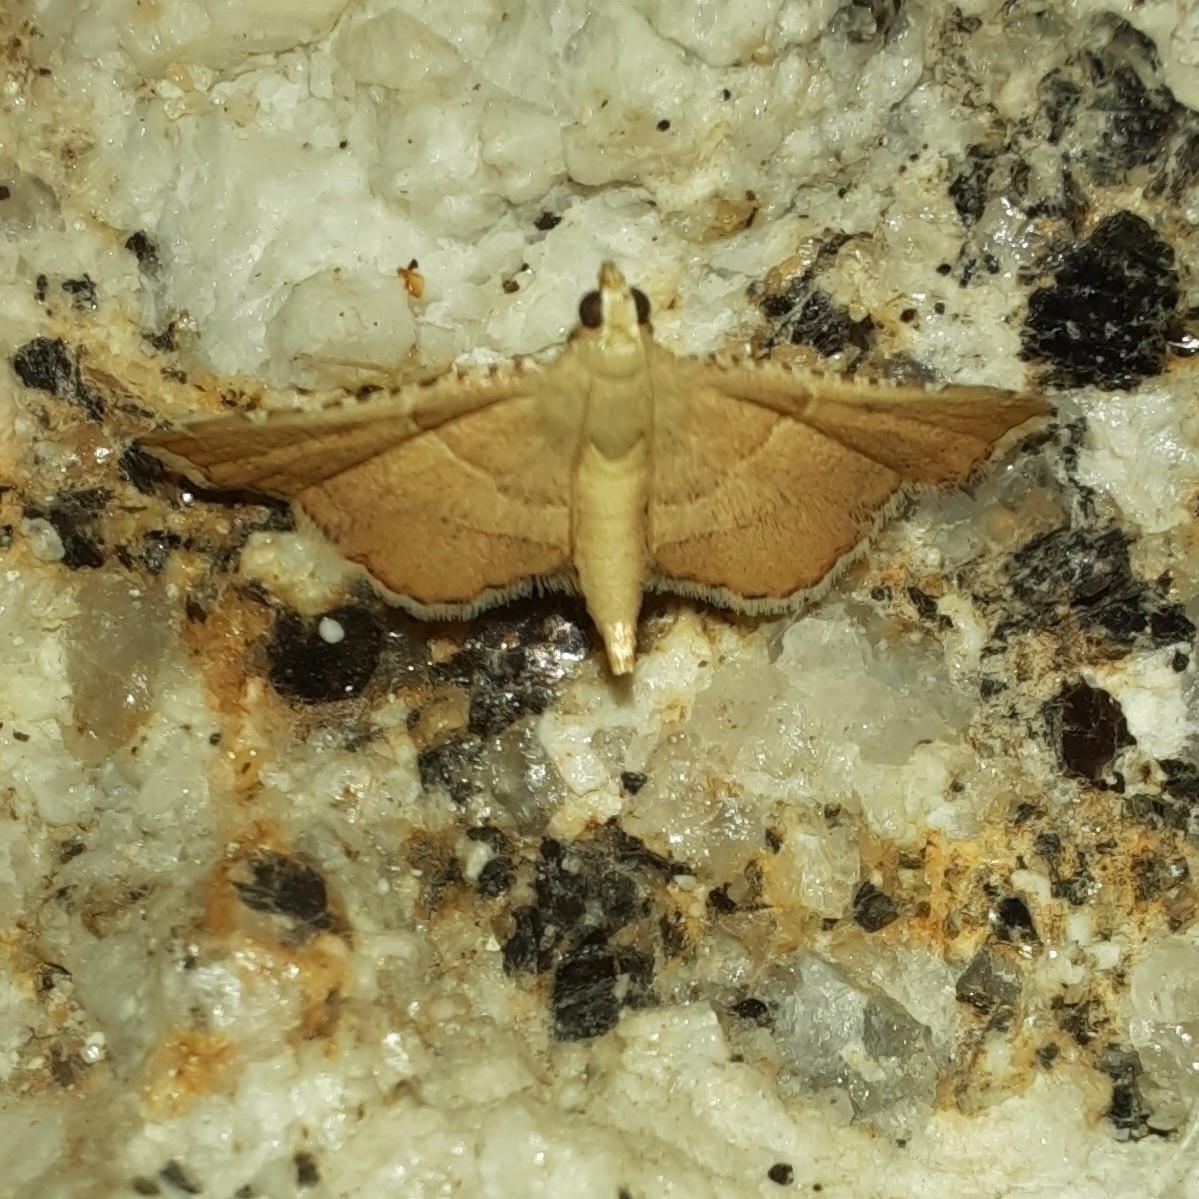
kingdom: Animalia
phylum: Arthropoda
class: Insecta
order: Lepidoptera
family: Pyralidae
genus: Endotricha
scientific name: Endotricha flammealis
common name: Rosy tabby
